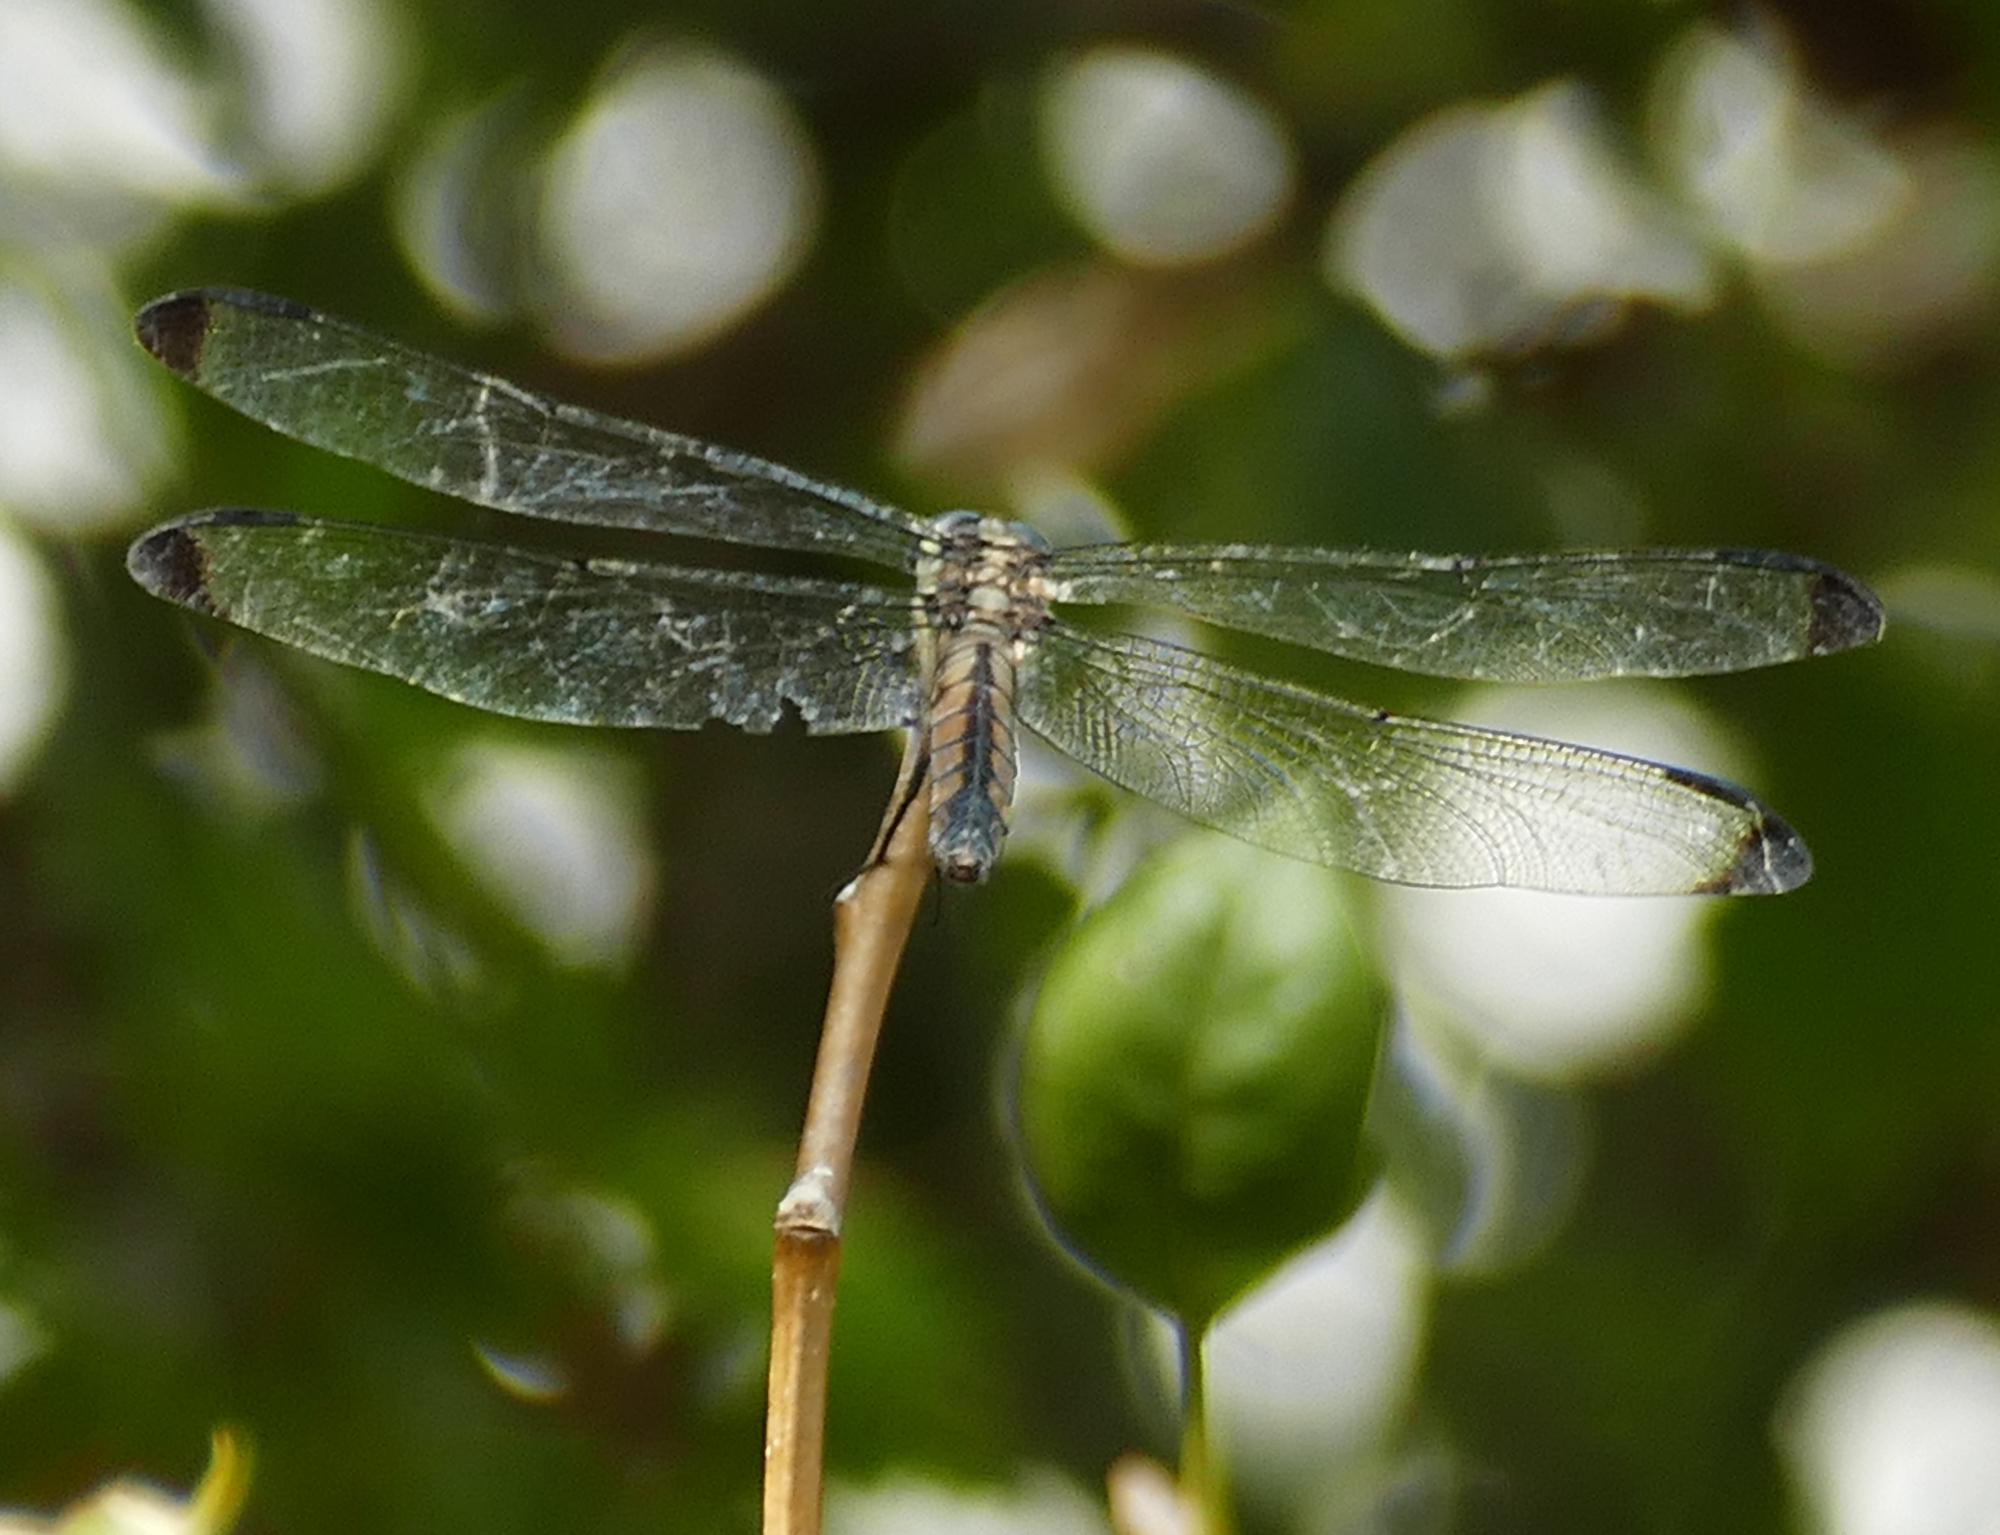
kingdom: Animalia
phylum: Arthropoda
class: Insecta
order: Odonata
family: Libellulidae
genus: Libellula
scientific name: Libellula vibrans
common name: Great blue skimmer
